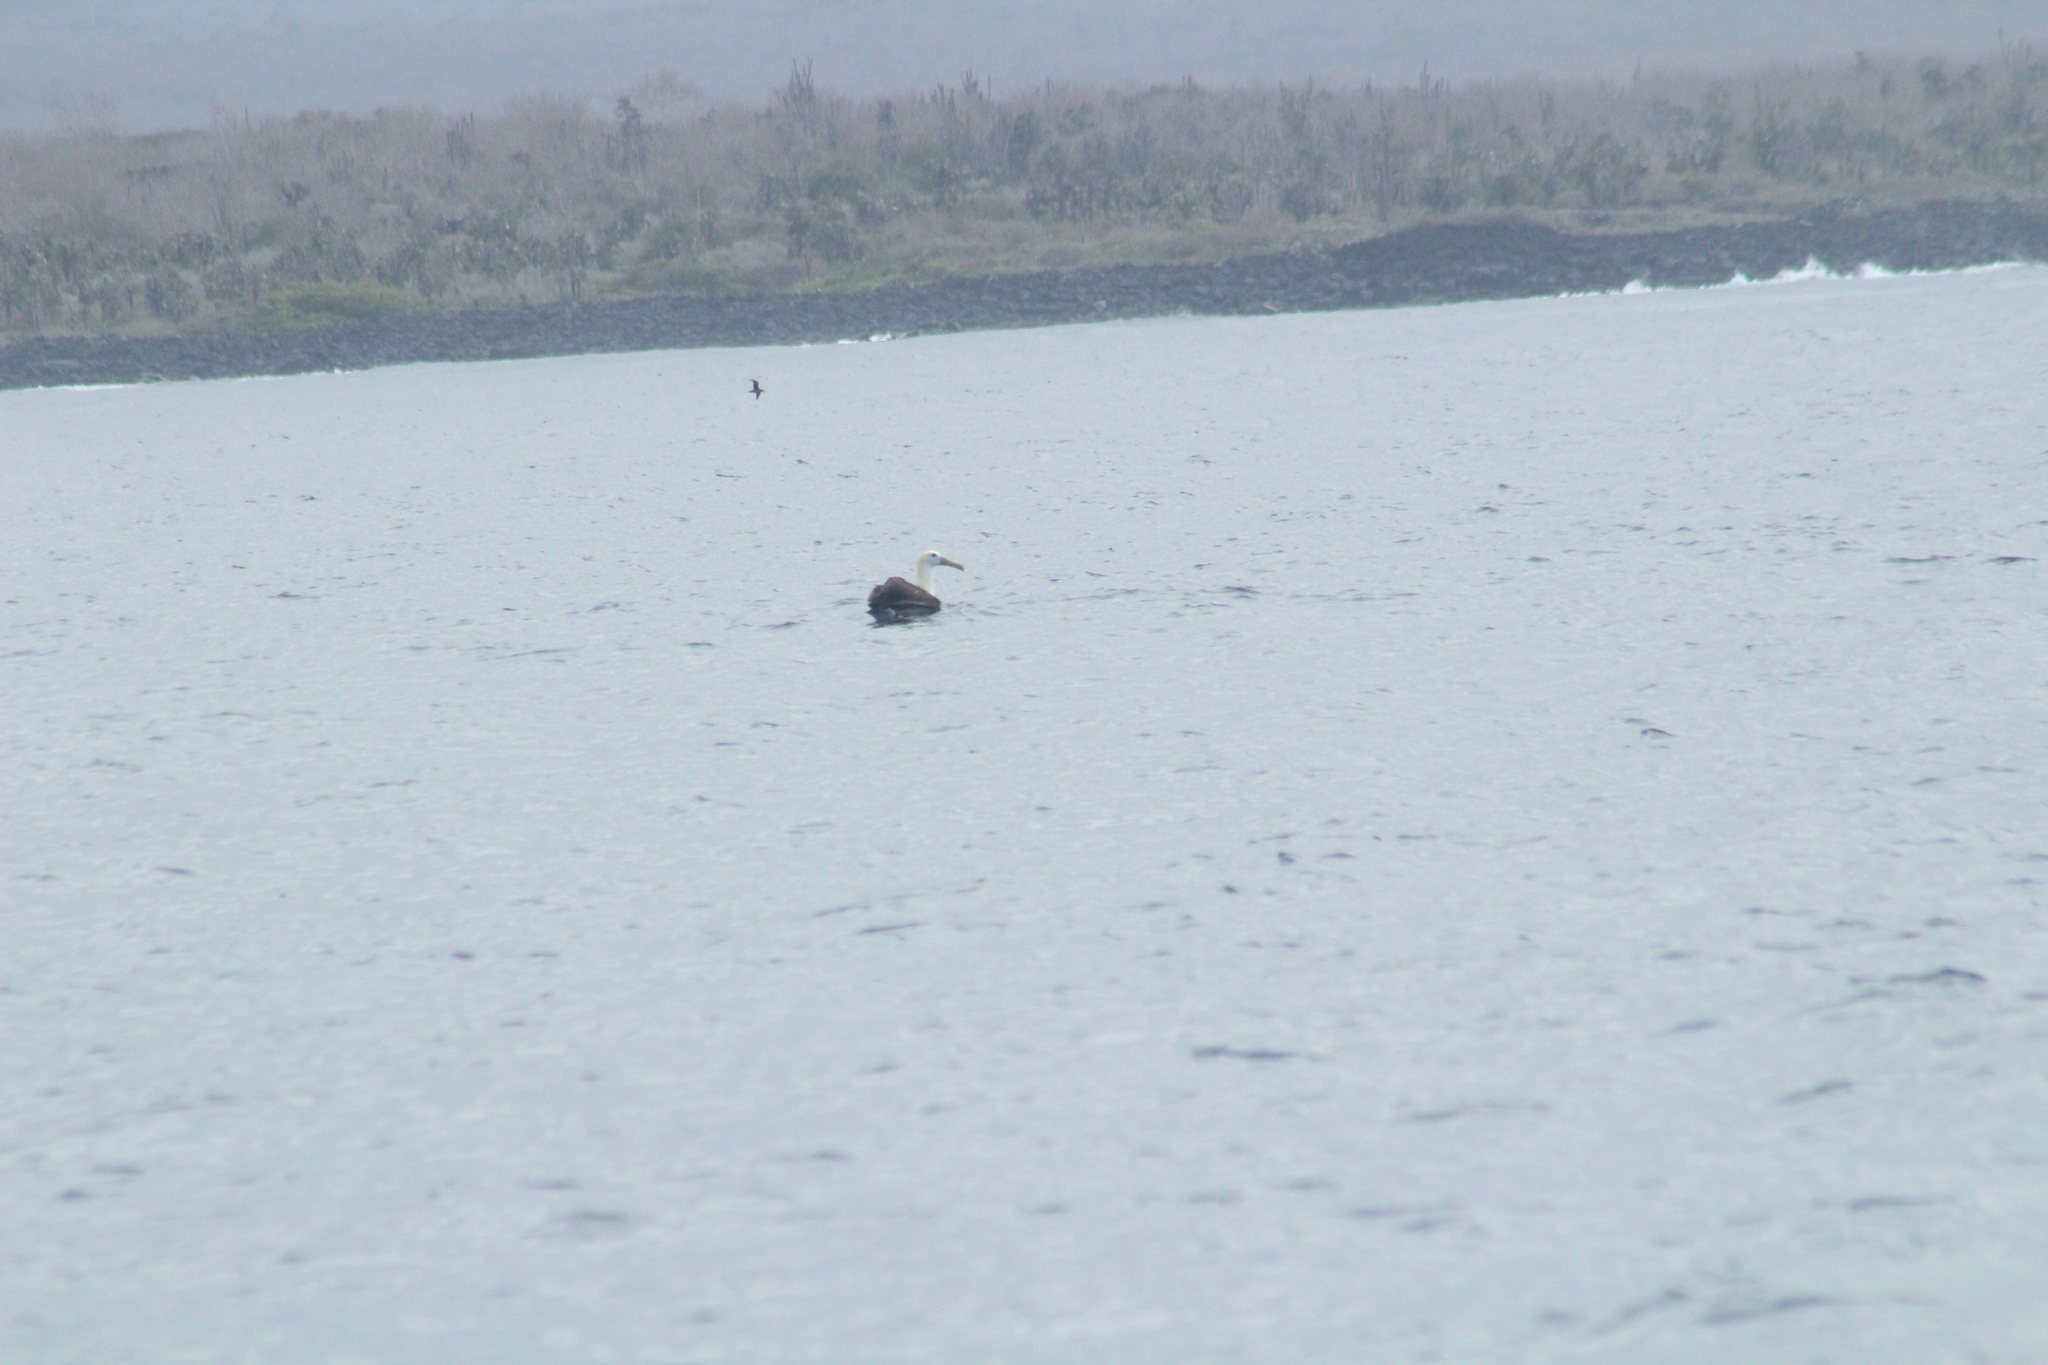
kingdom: Animalia
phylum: Chordata
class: Aves
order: Procellariiformes
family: Diomedeidae
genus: Phoebastria
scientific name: Phoebastria irrorata
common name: Waved albatross
